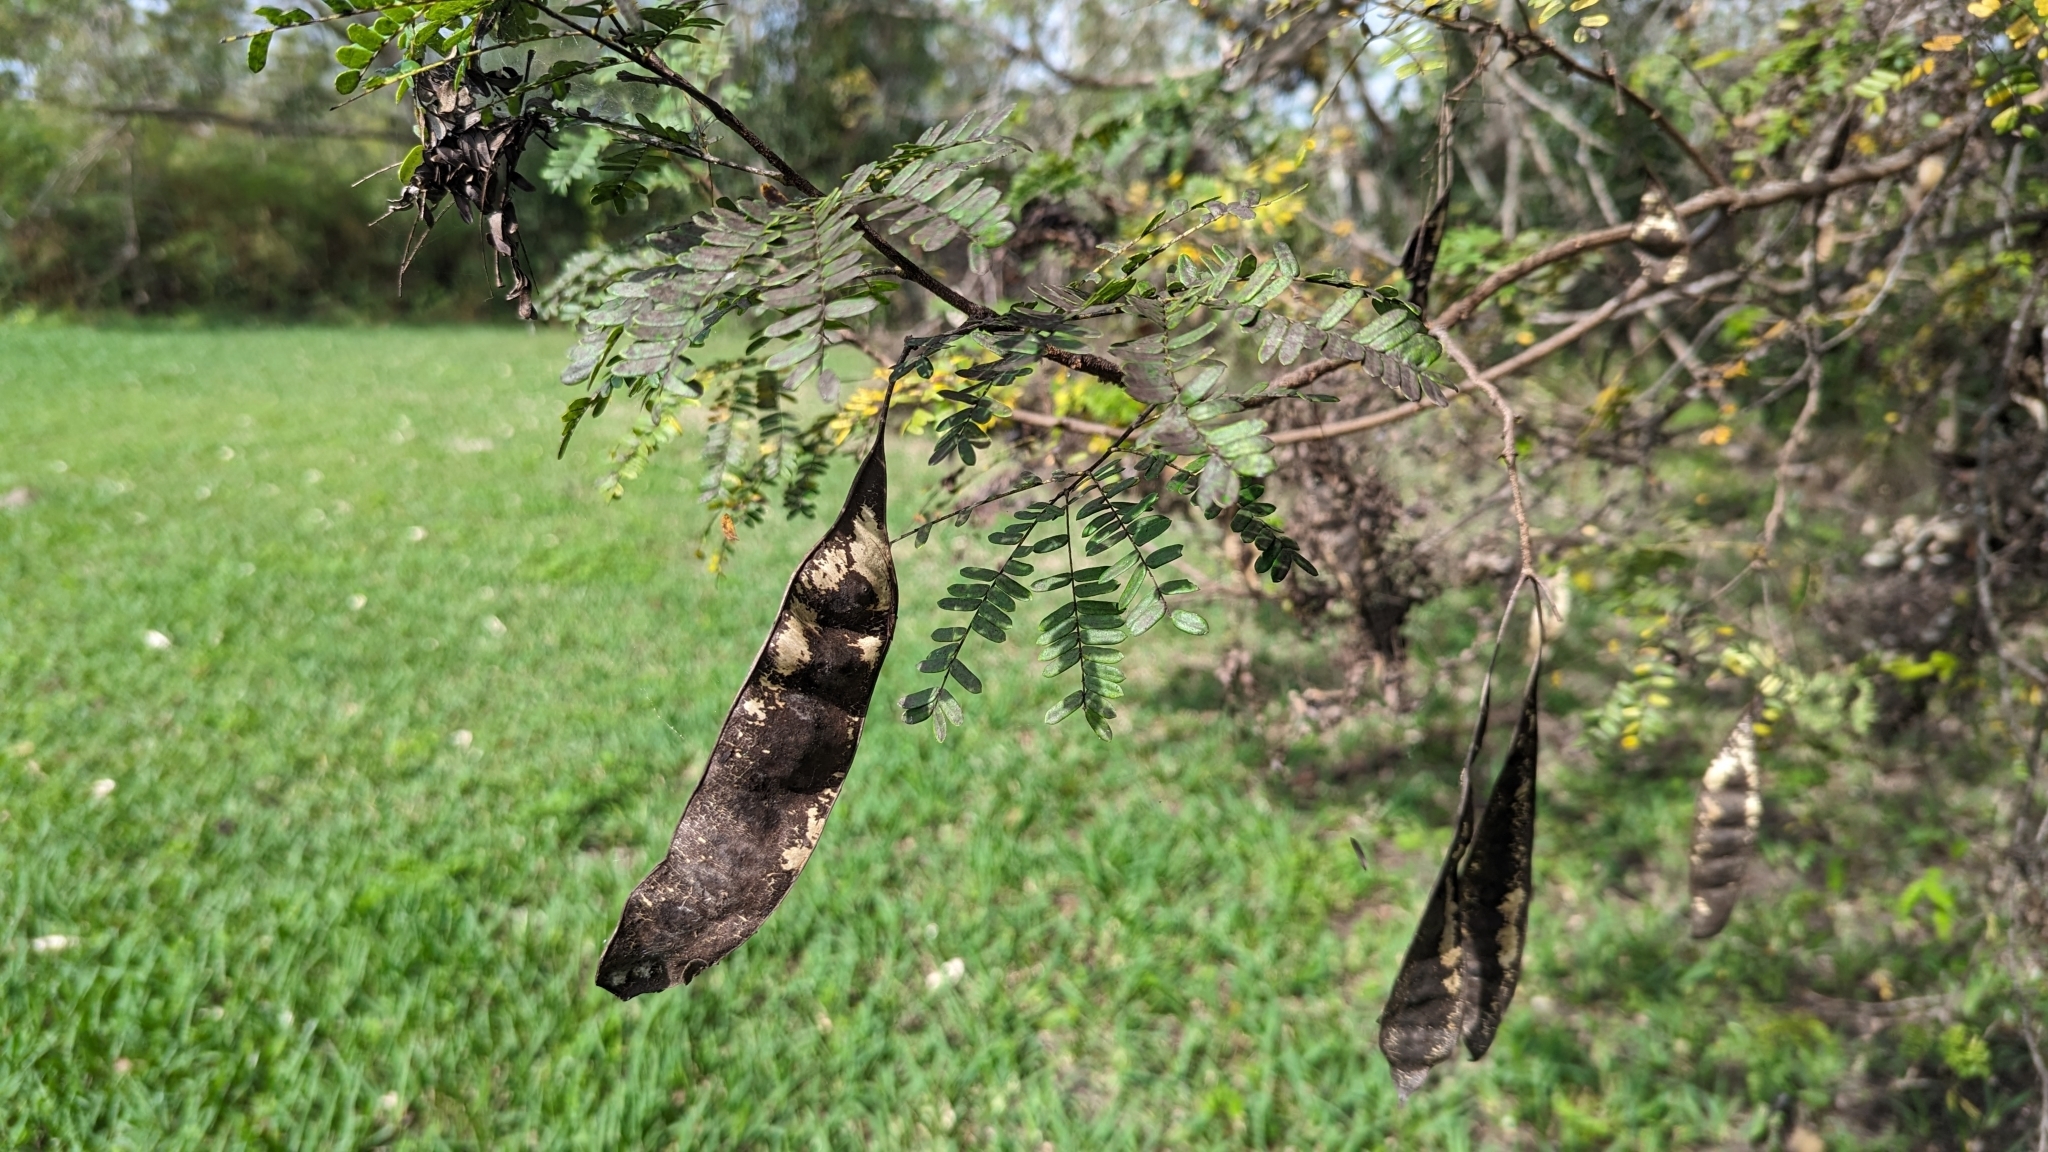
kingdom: Plantae
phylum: Tracheophyta
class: Magnoliopsida
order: Fabales
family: Fabaceae
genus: Lysiloma
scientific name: Lysiloma latisiliquum
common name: Wild tamarind
